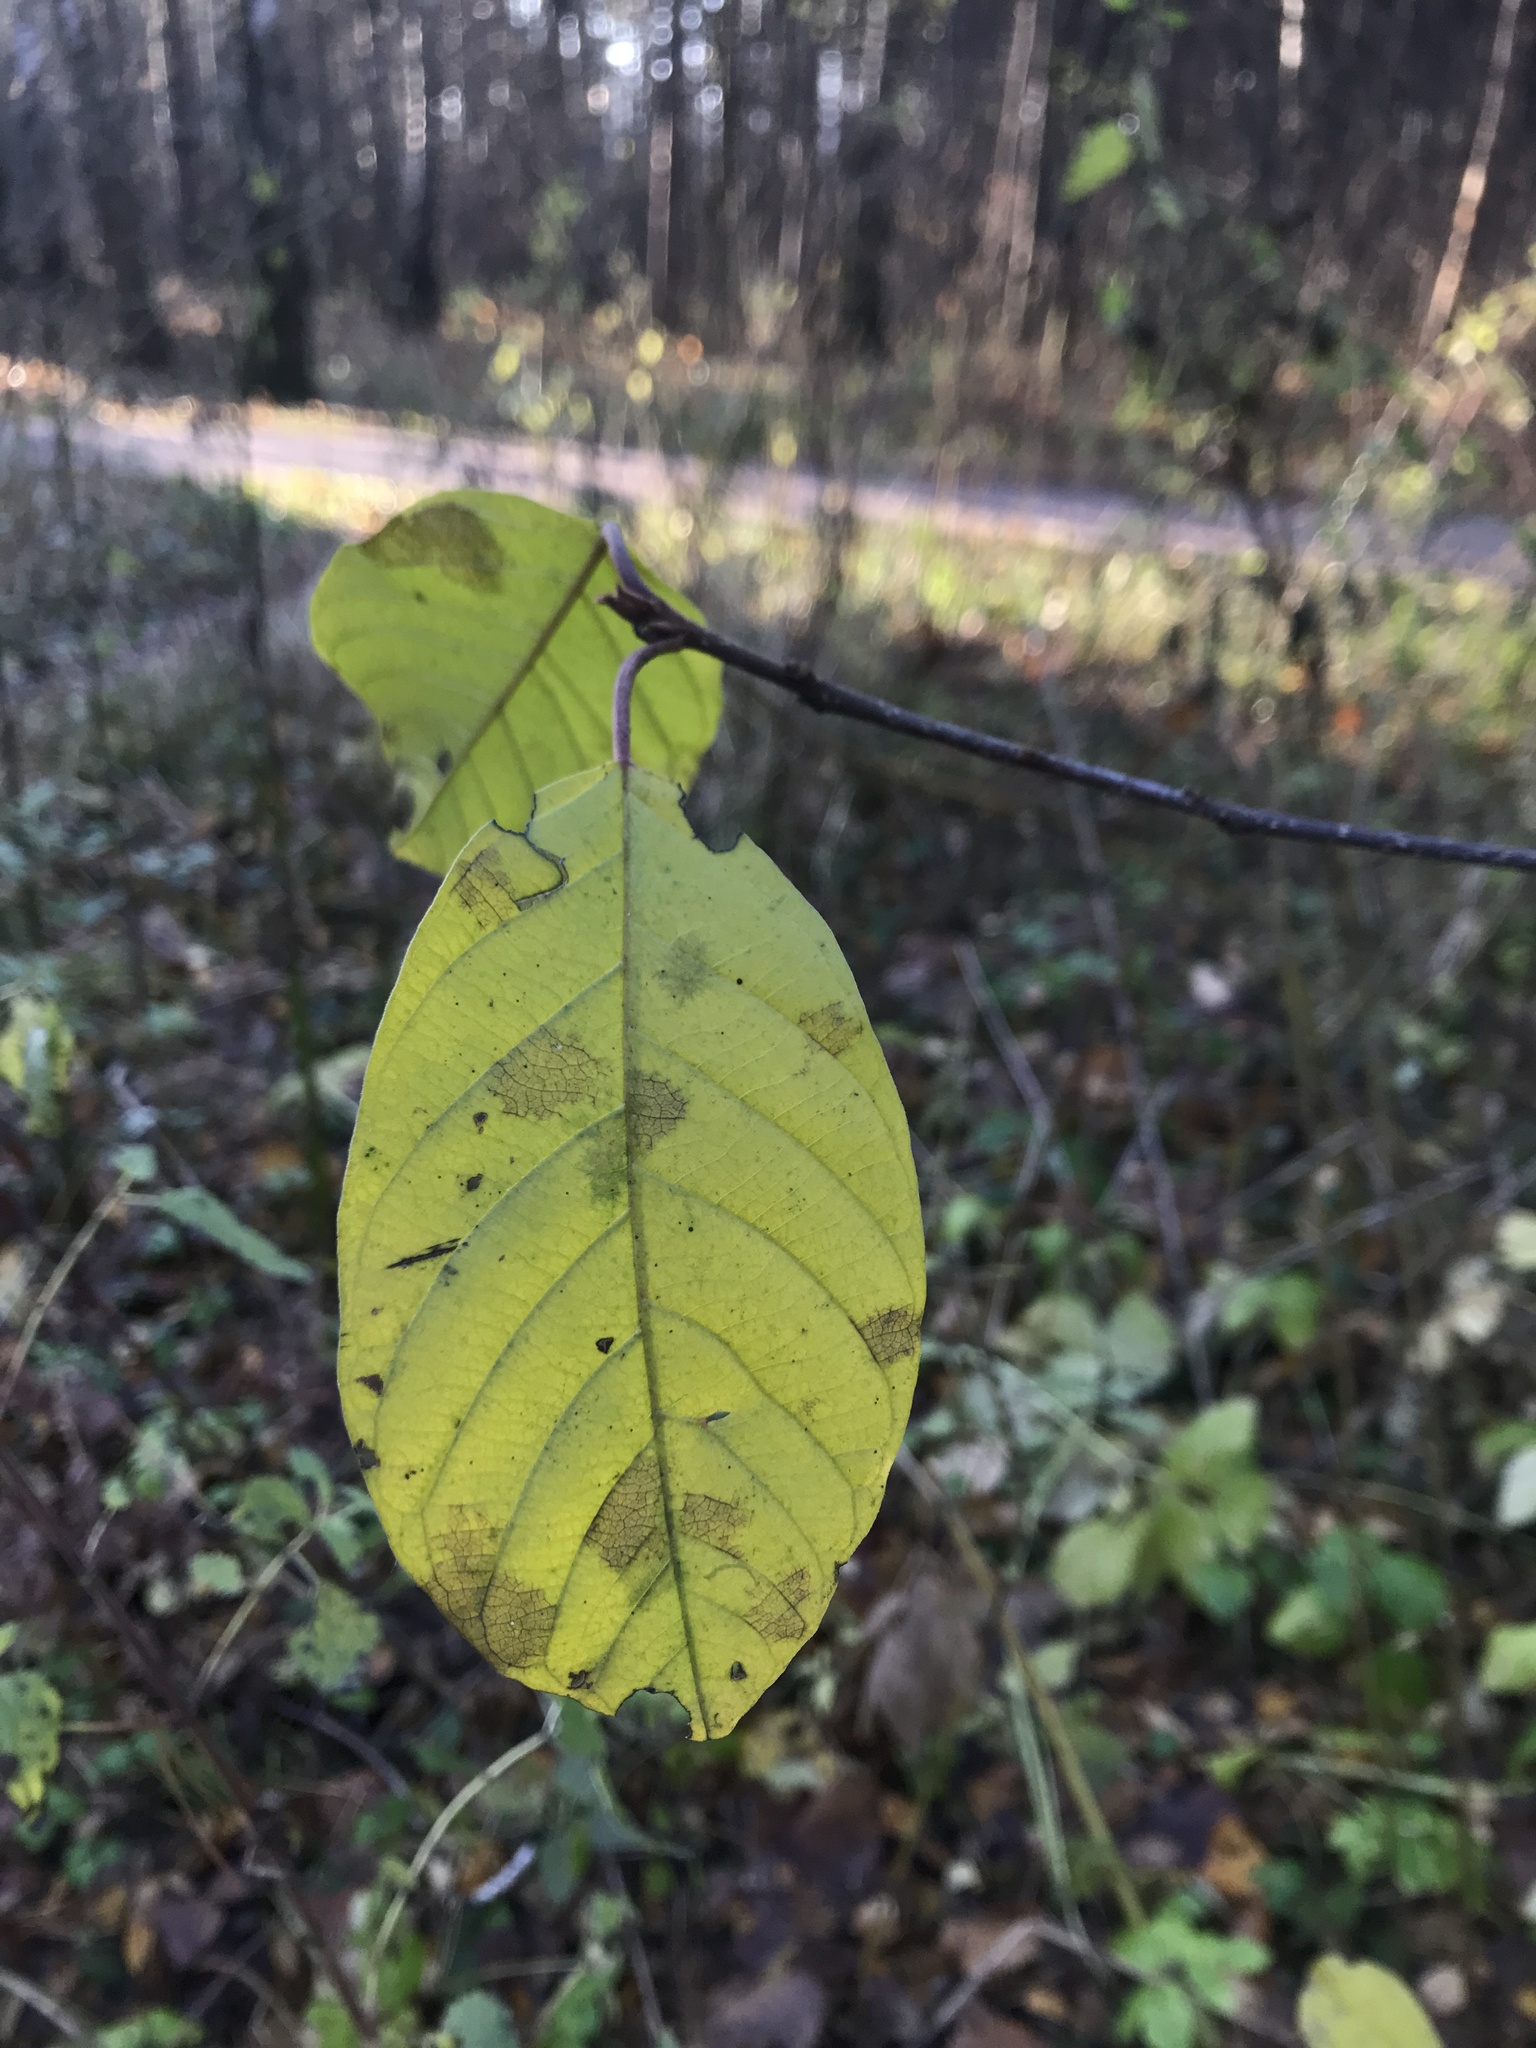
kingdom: Plantae
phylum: Tracheophyta
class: Magnoliopsida
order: Rosales
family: Rhamnaceae
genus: Frangula
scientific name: Frangula alnus
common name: Alder buckthorn
